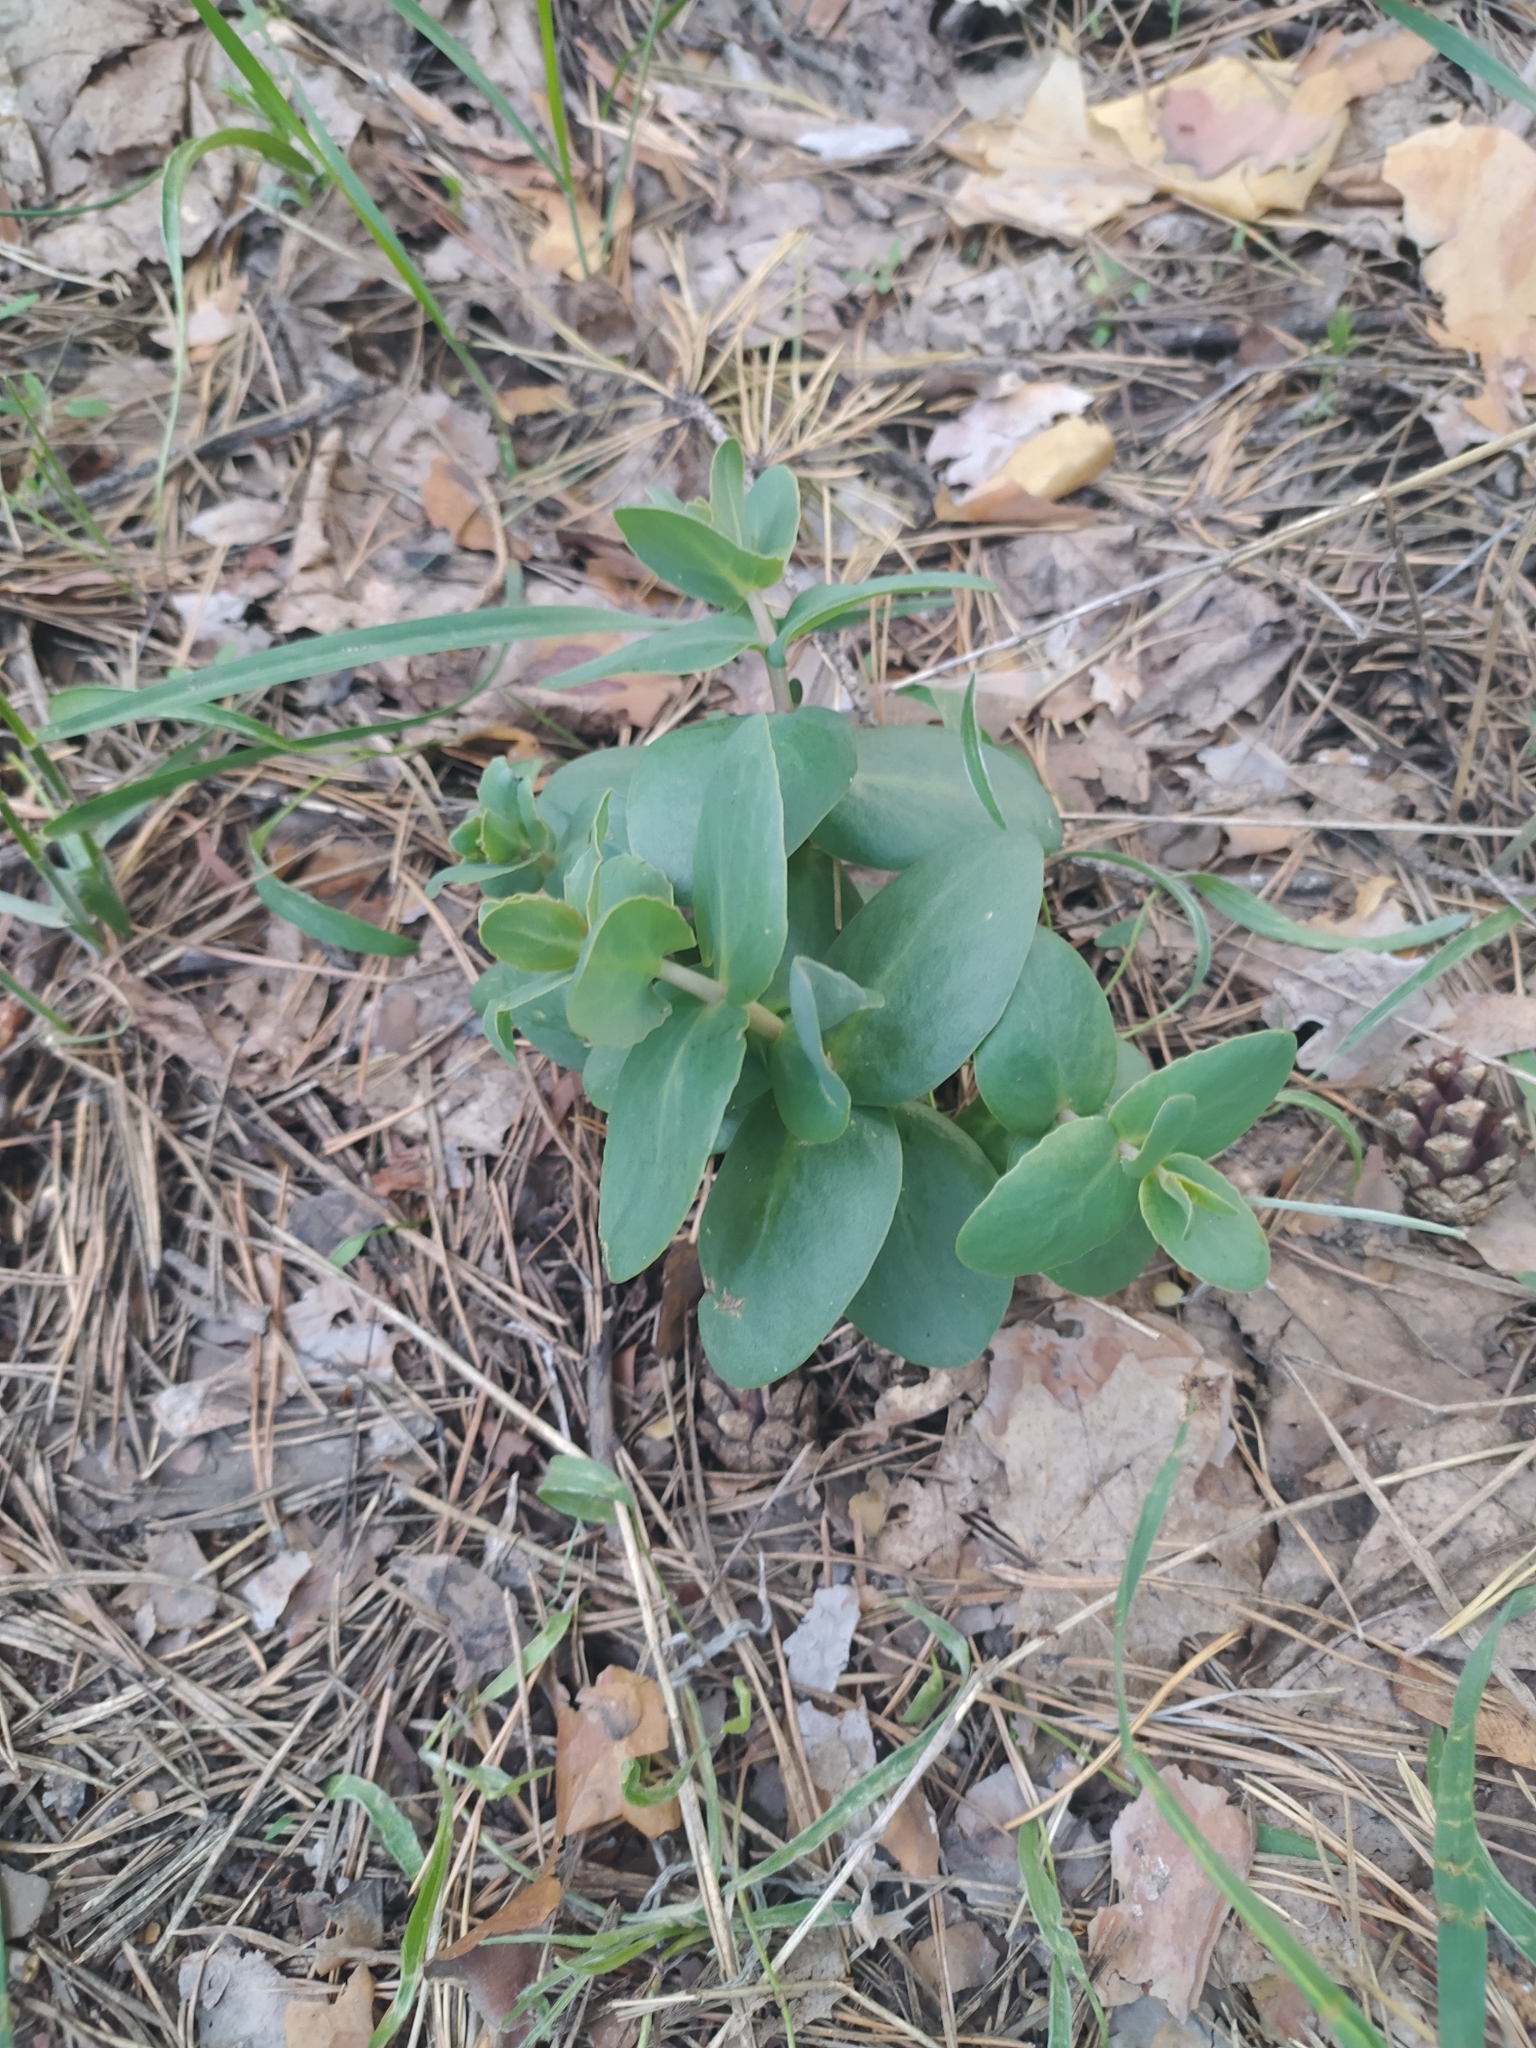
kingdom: Plantae
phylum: Tracheophyta
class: Magnoliopsida
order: Saxifragales
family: Crassulaceae
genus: Hylotelephium
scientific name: Hylotelephium maximum
